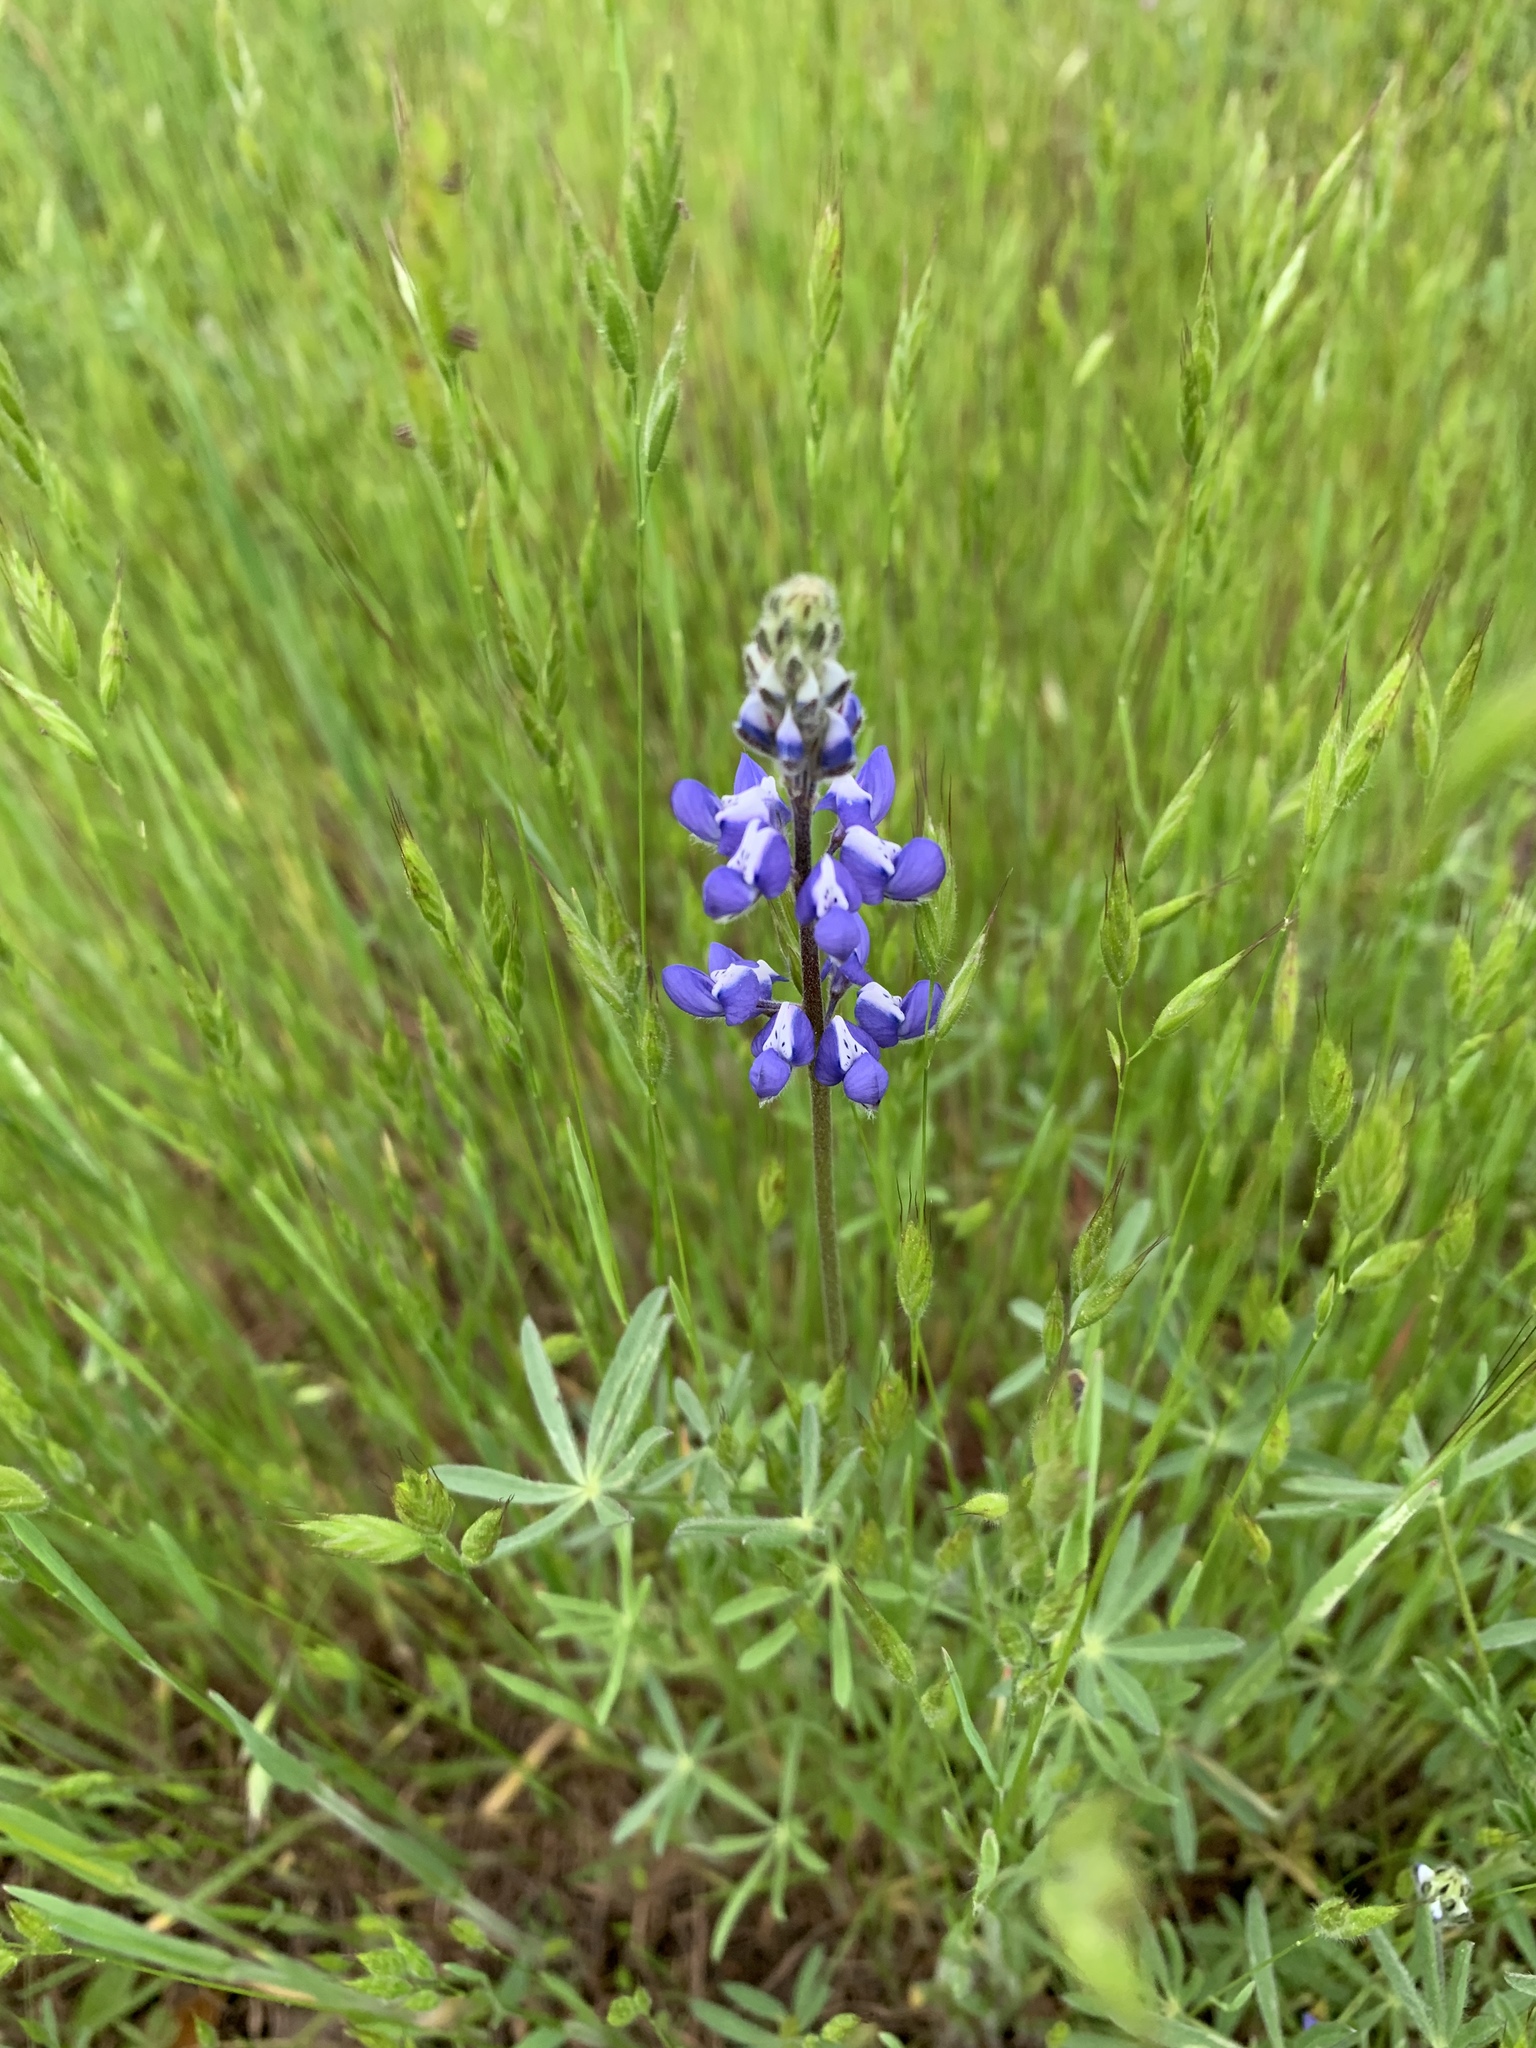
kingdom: Plantae
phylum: Tracheophyta
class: Magnoliopsida
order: Fabales
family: Fabaceae
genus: Lupinus
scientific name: Lupinus bicolor
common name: Miniature lupine
